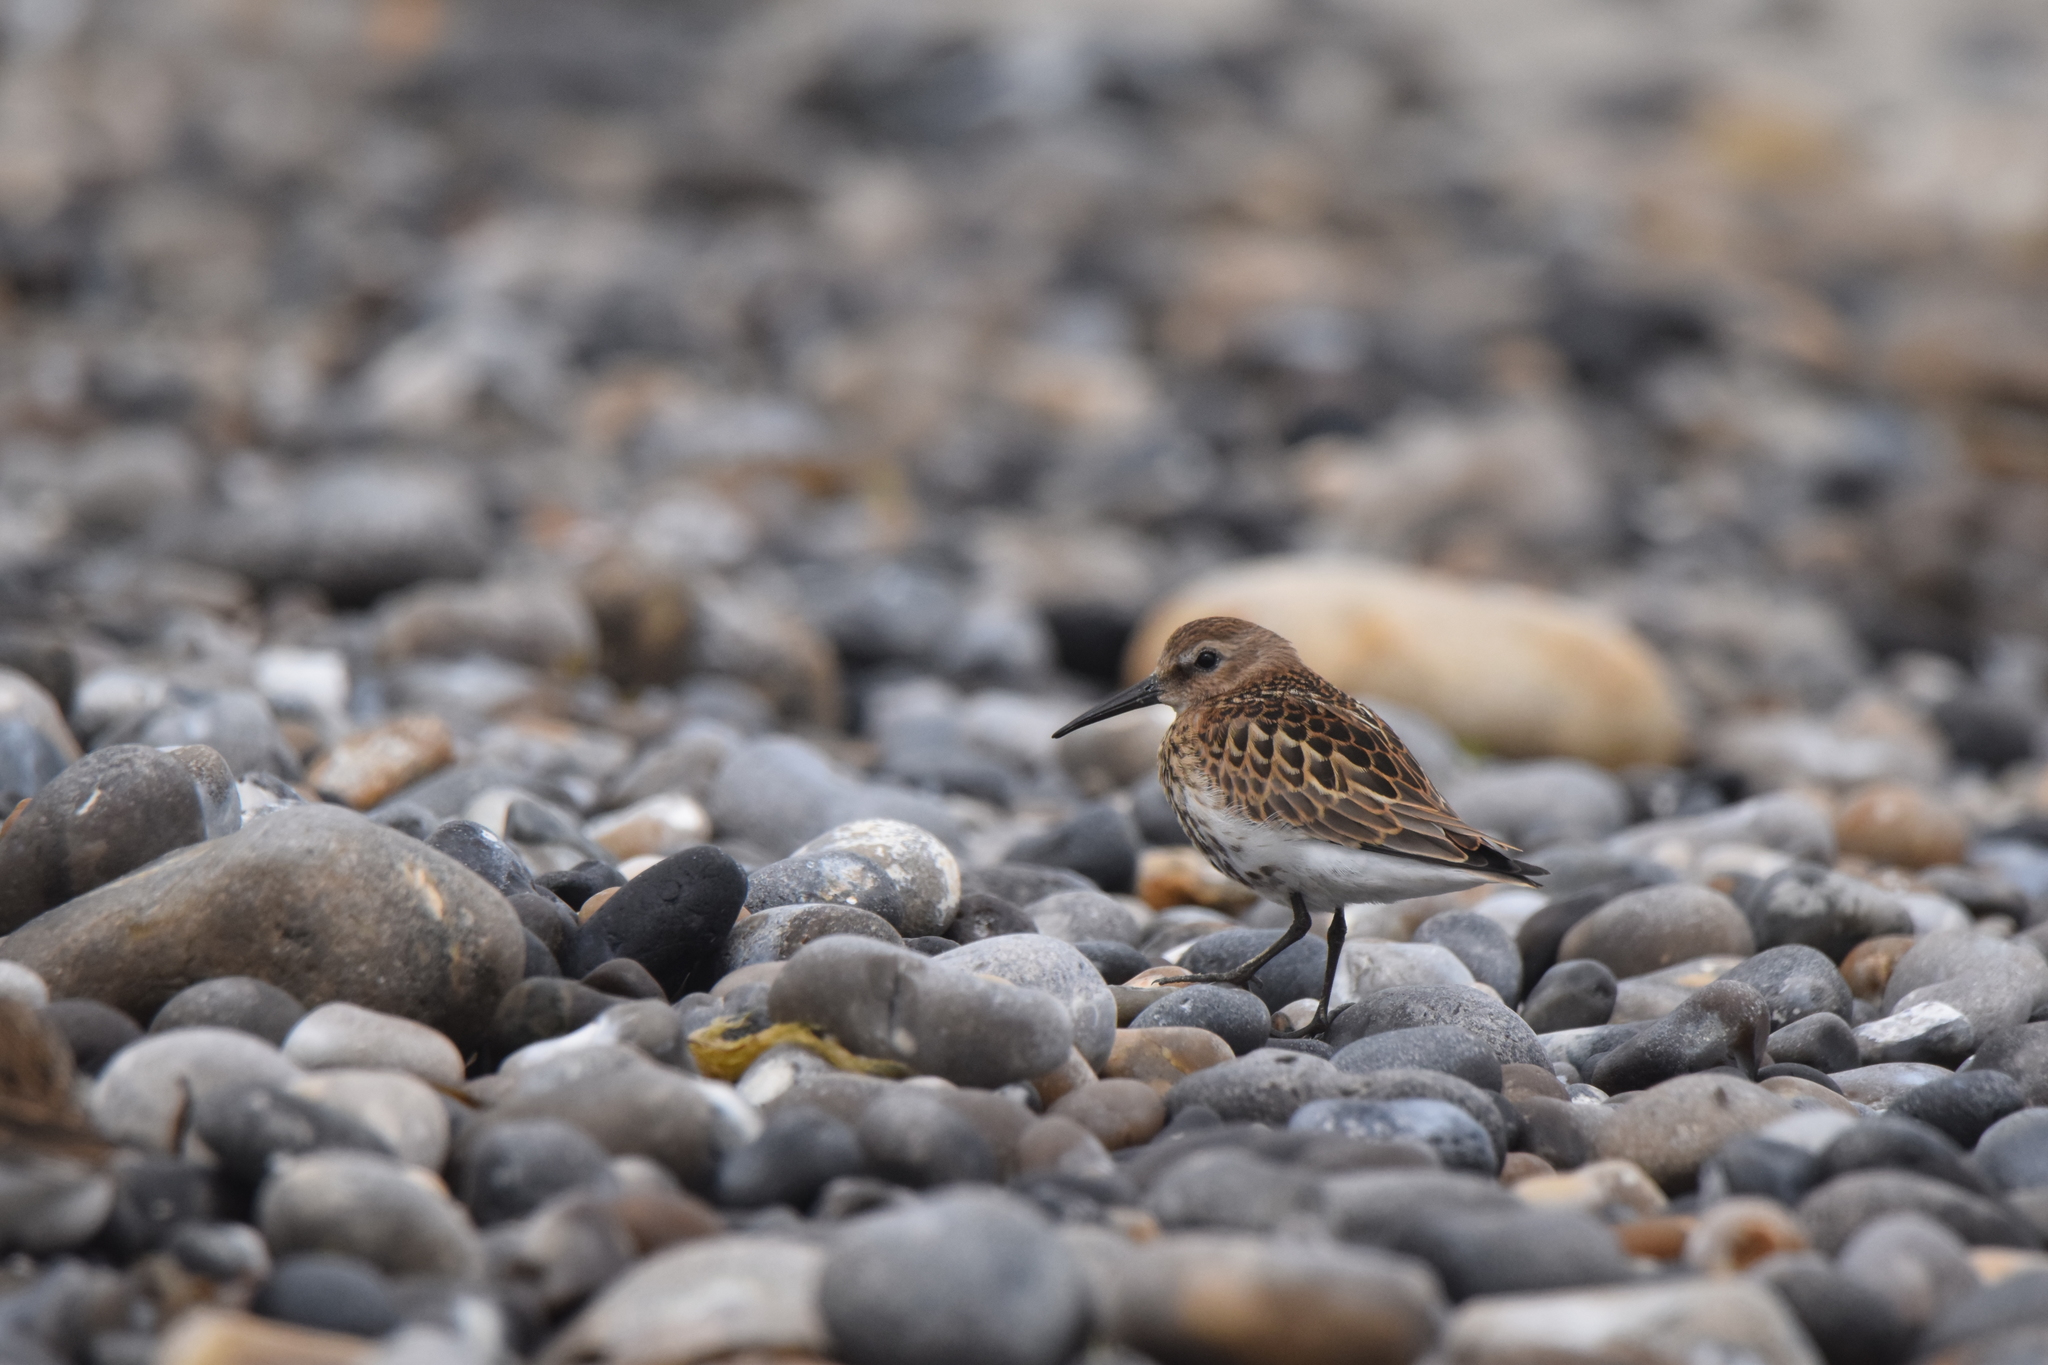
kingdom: Animalia
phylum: Chordata
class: Aves
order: Charadriiformes
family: Scolopacidae
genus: Calidris
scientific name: Calidris alpina
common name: Dunlin
